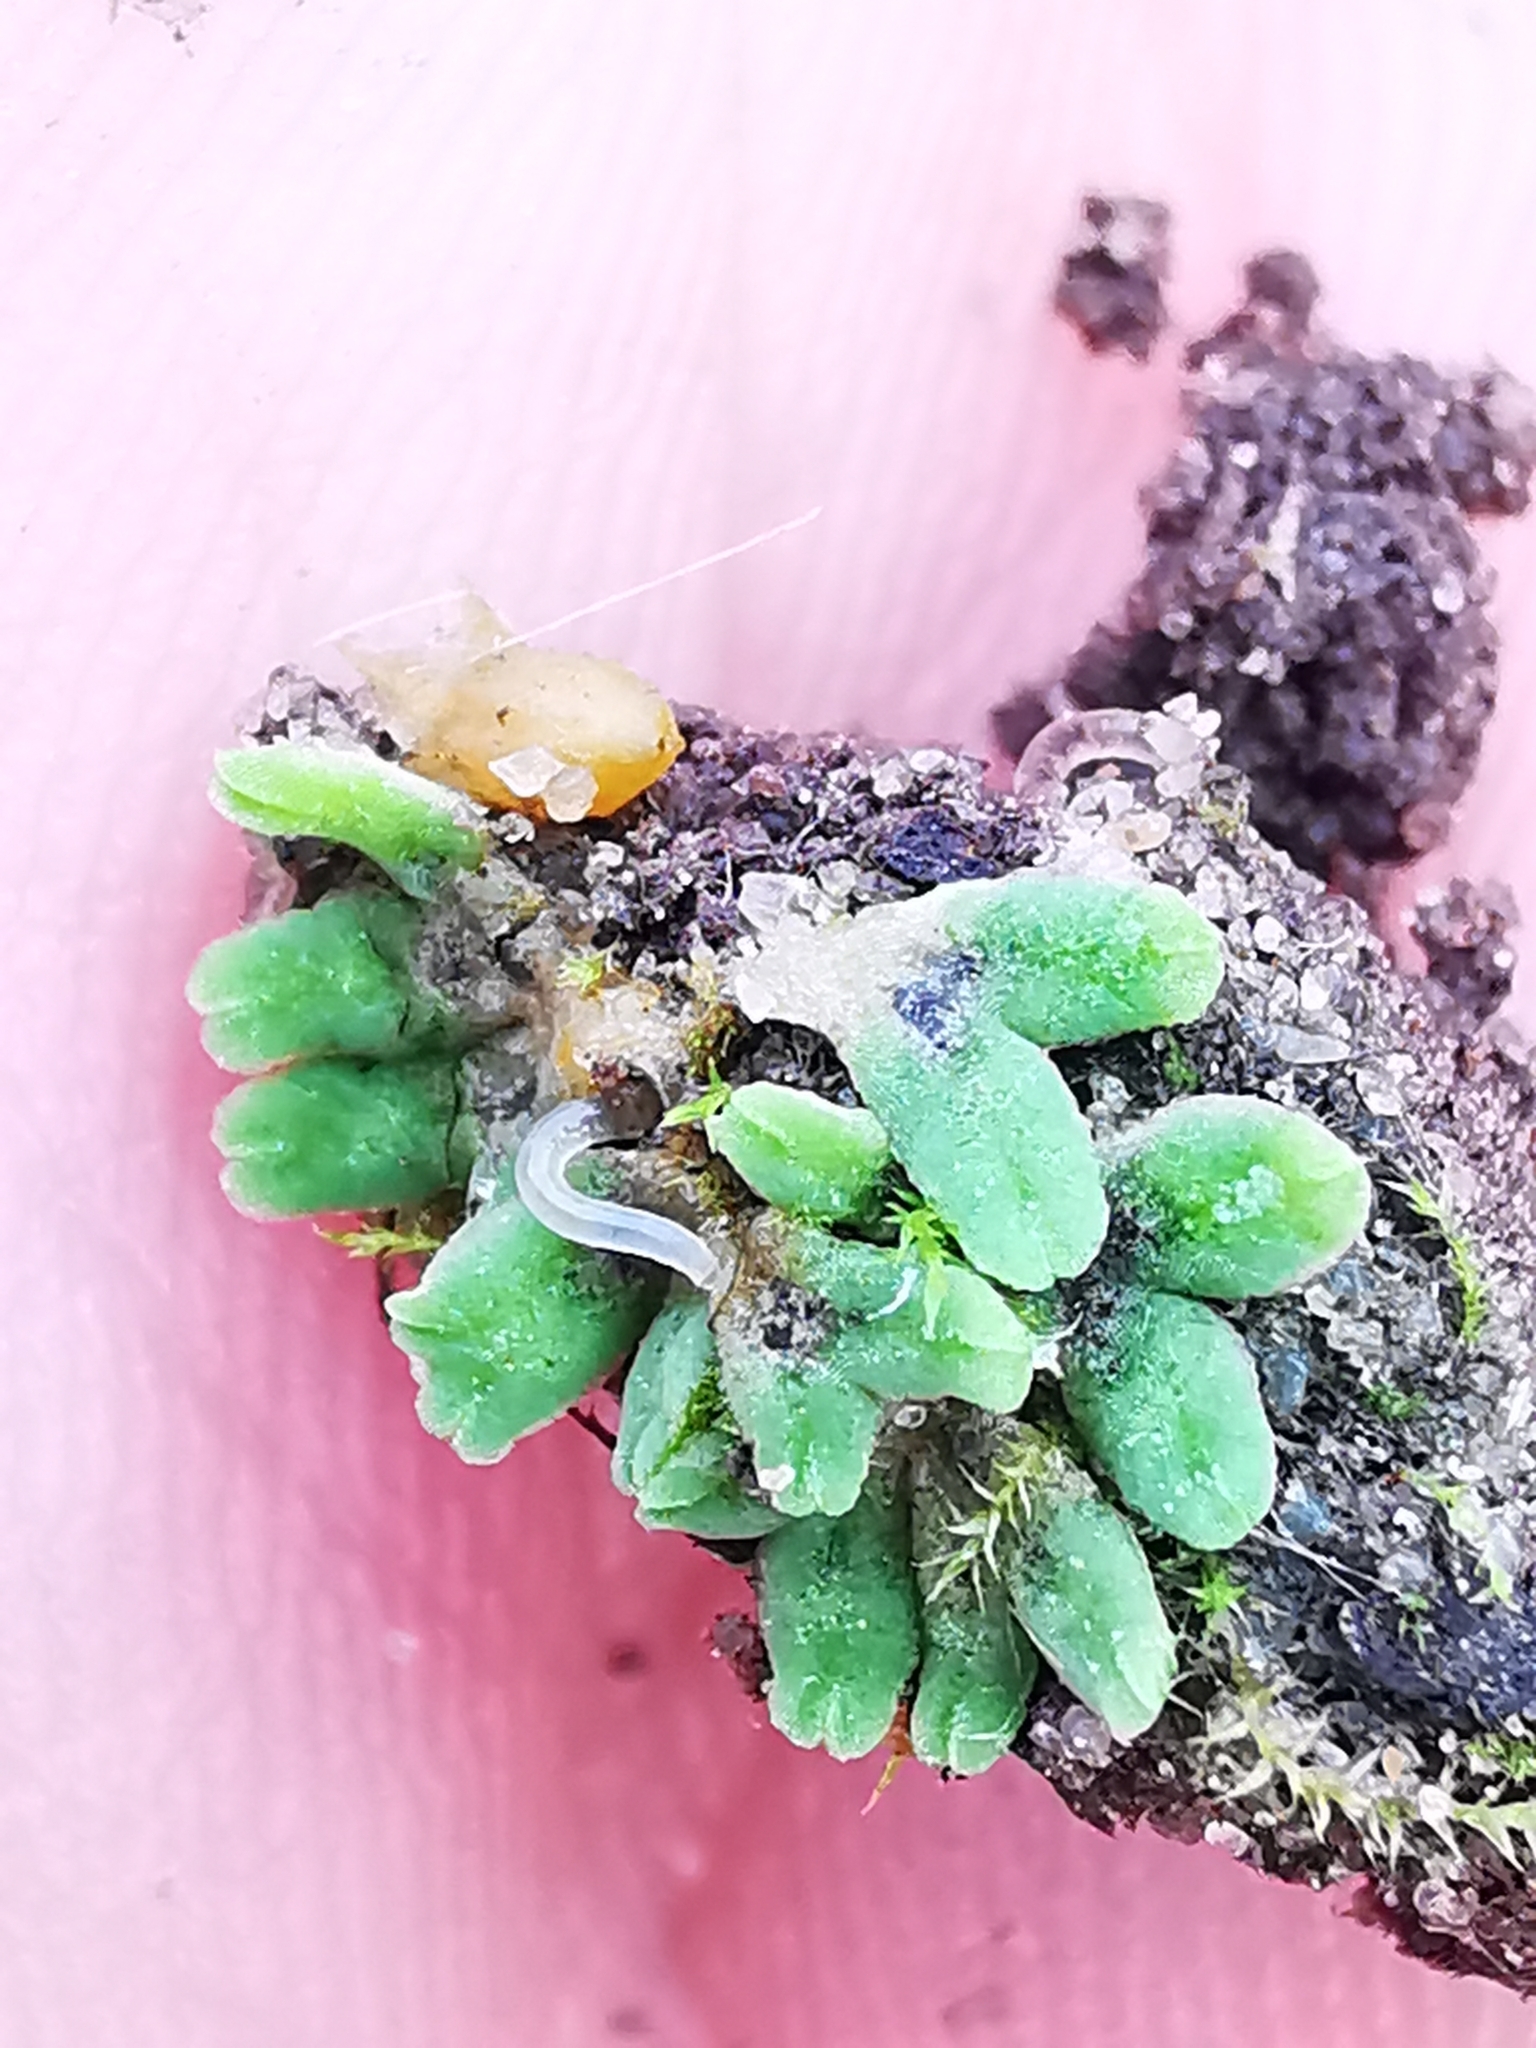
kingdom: Plantae
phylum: Marchantiophyta
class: Marchantiopsida
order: Marchantiales
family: Ricciaceae
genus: Riccia
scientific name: Riccia sorocarpa
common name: Common crystalwort
